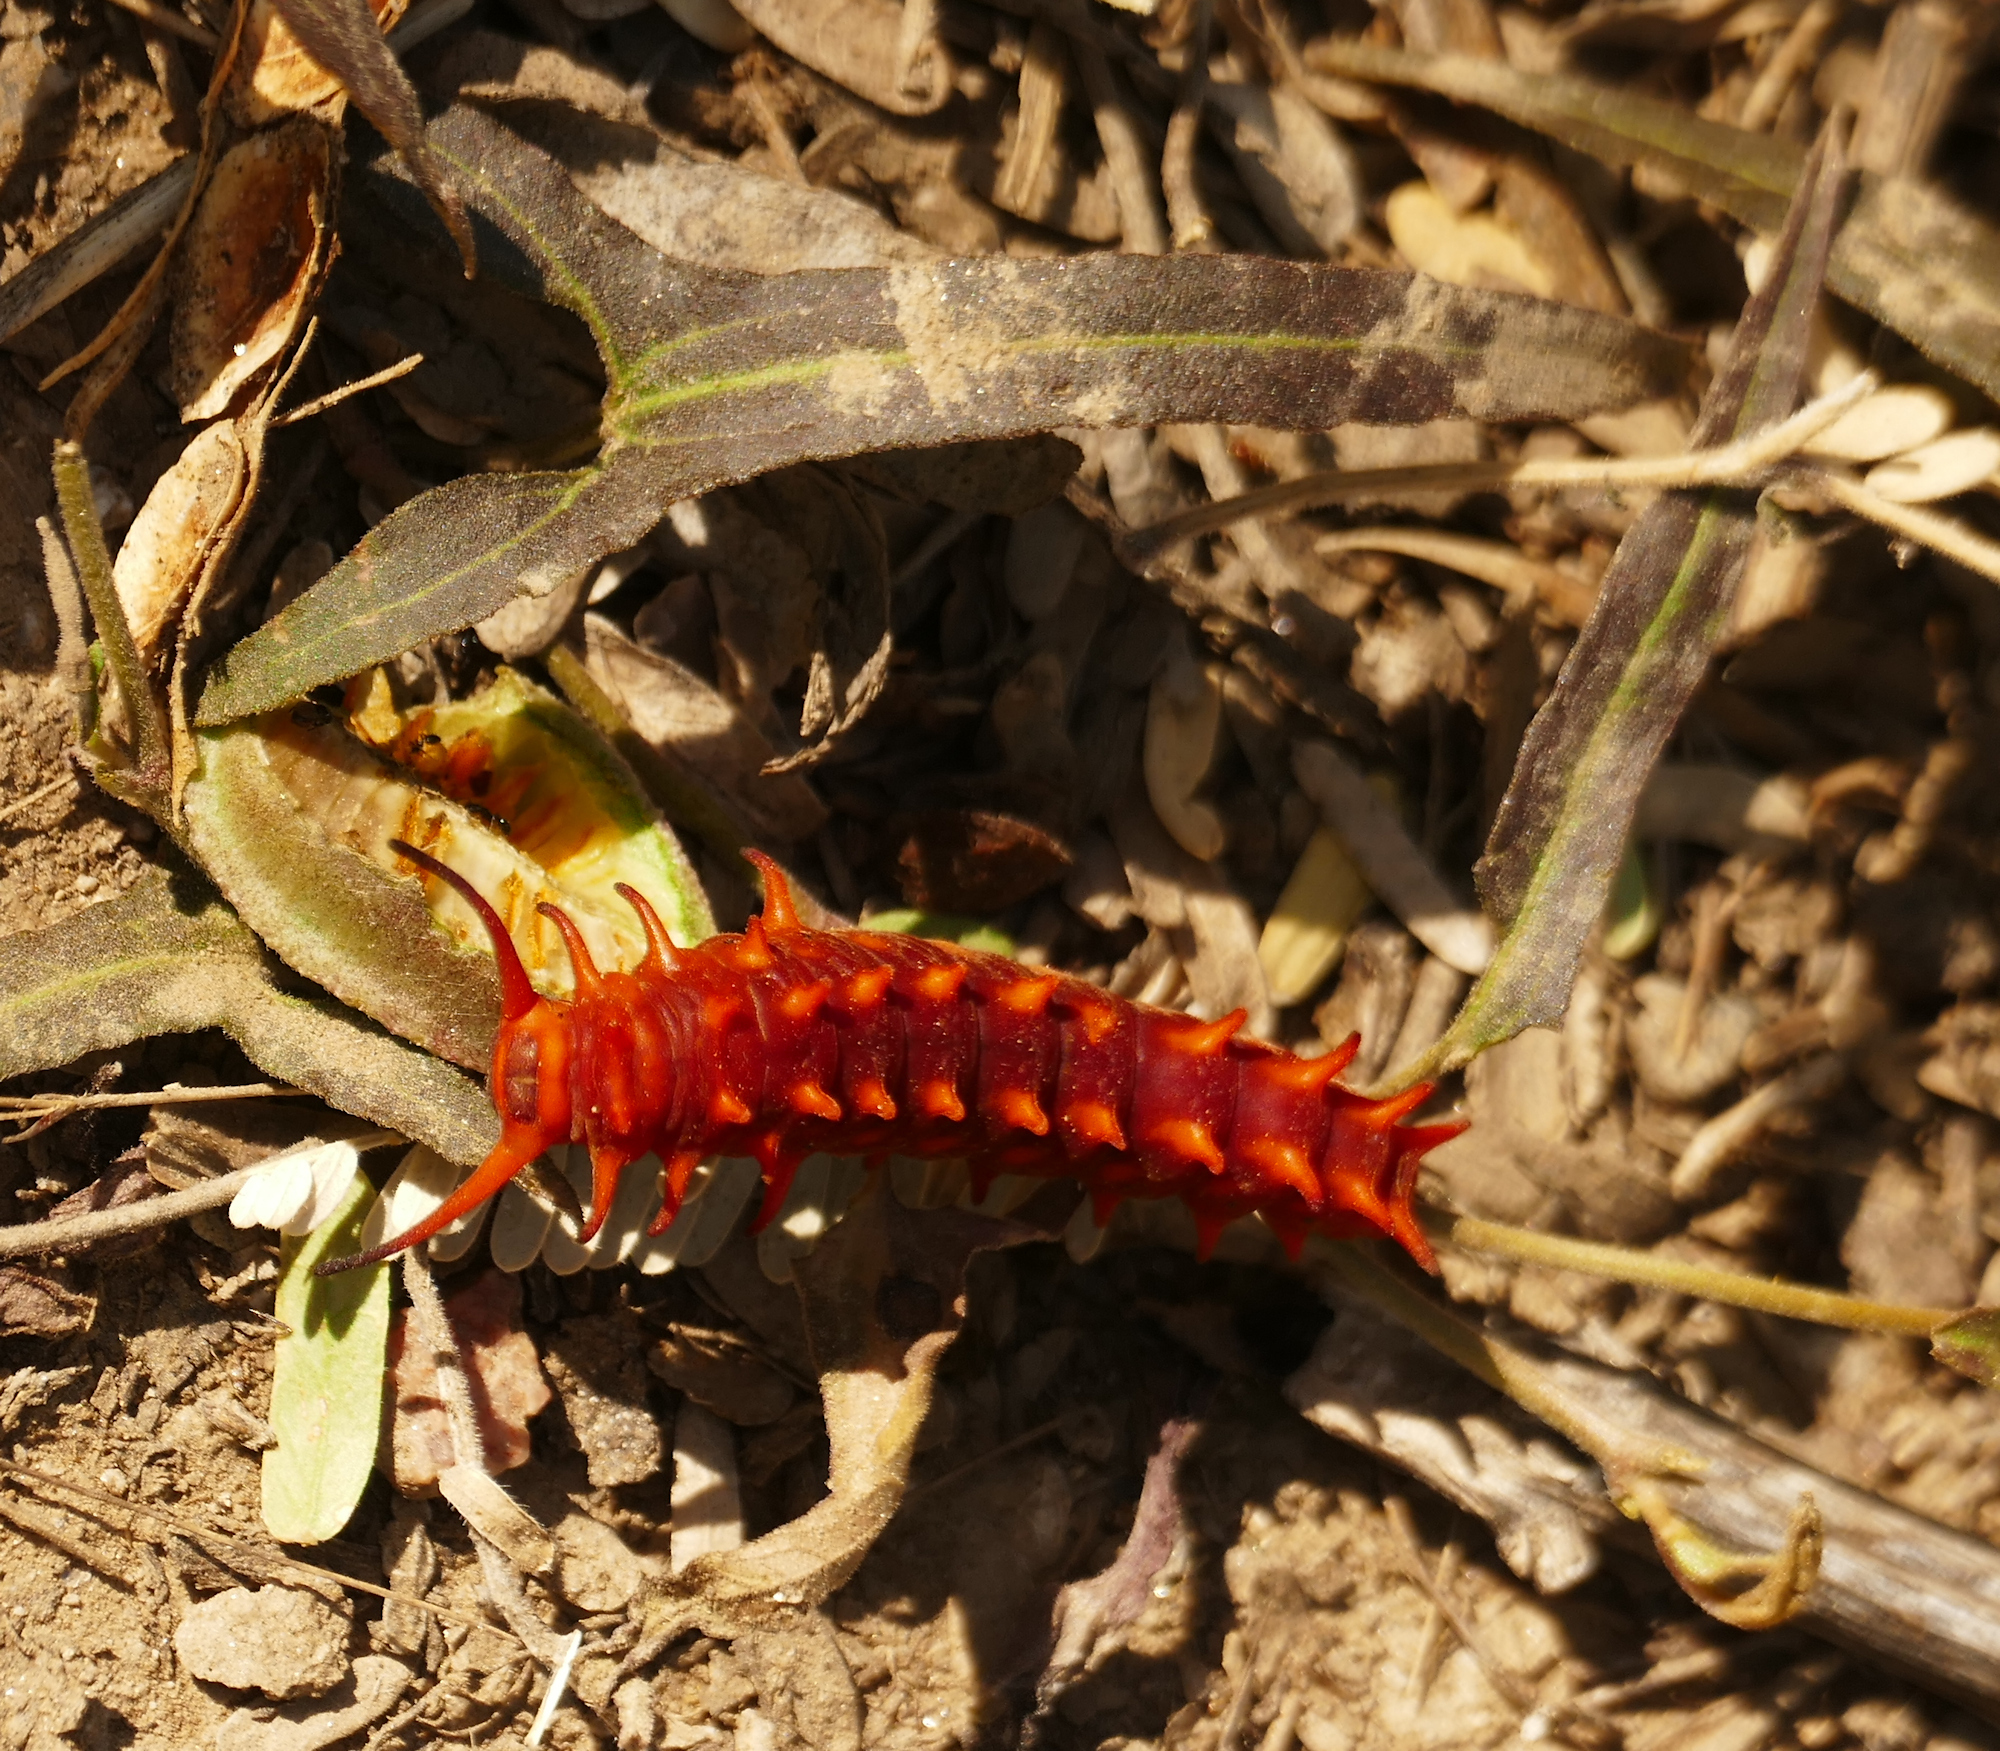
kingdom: Animalia
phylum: Arthropoda
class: Insecta
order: Lepidoptera
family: Papilionidae
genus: Battus
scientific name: Battus philenor
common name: Pipevine swallowtail
